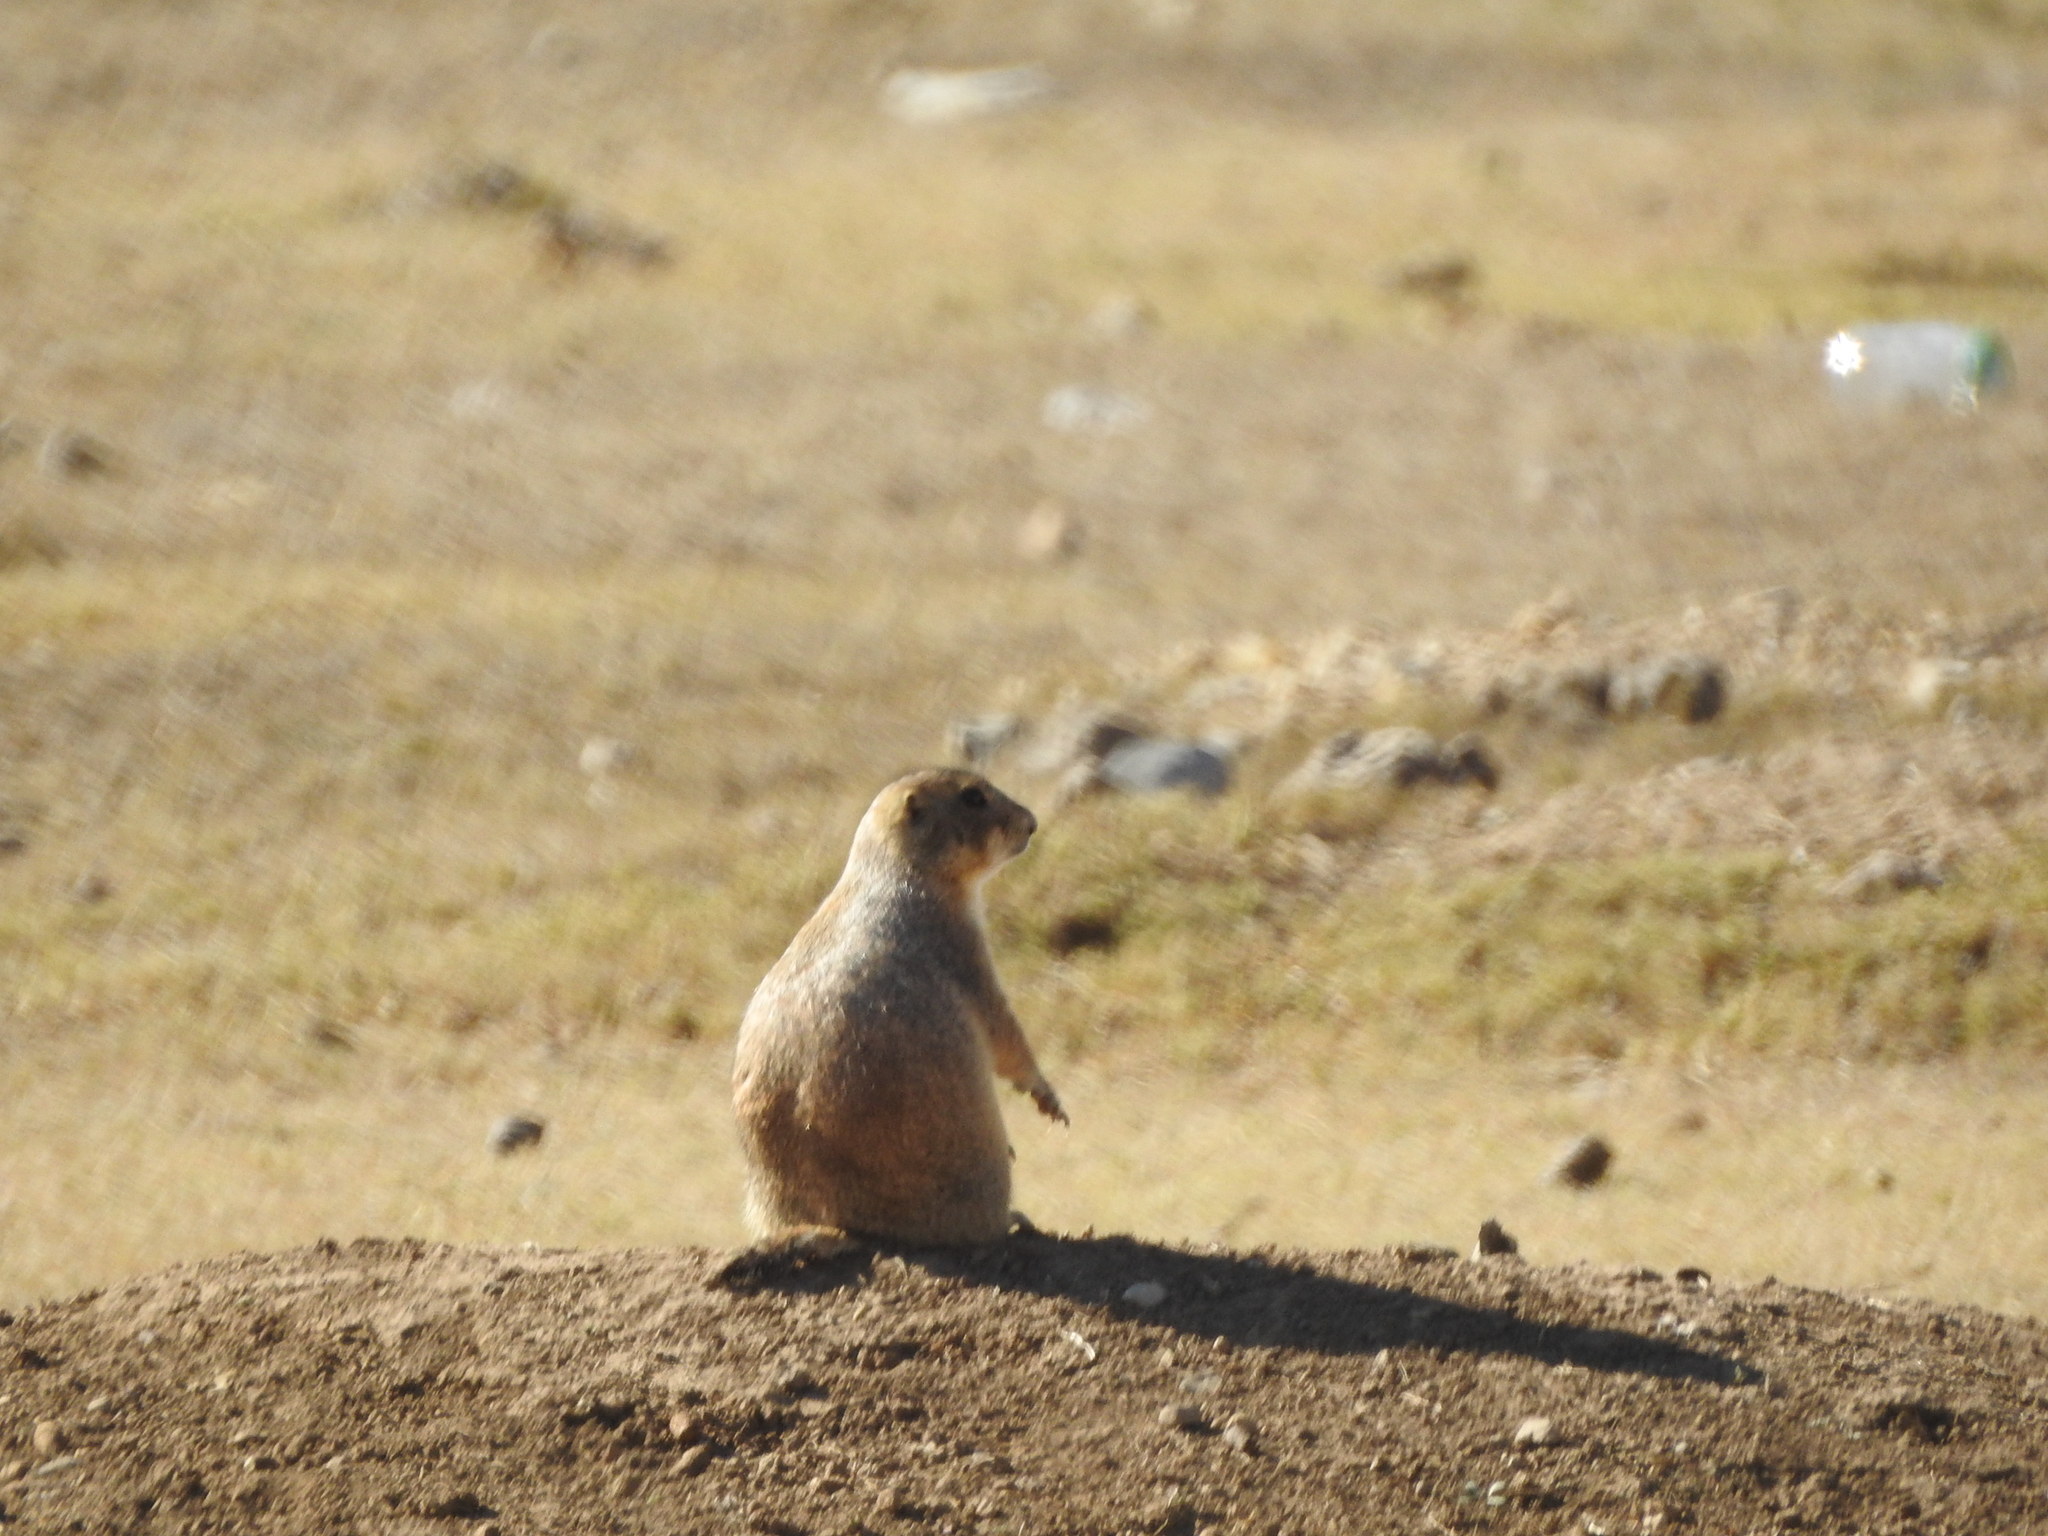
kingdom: Animalia
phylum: Chordata
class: Mammalia
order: Rodentia
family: Sciuridae
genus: Cynomys
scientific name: Cynomys mexicanus
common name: Mexican prairie dog
